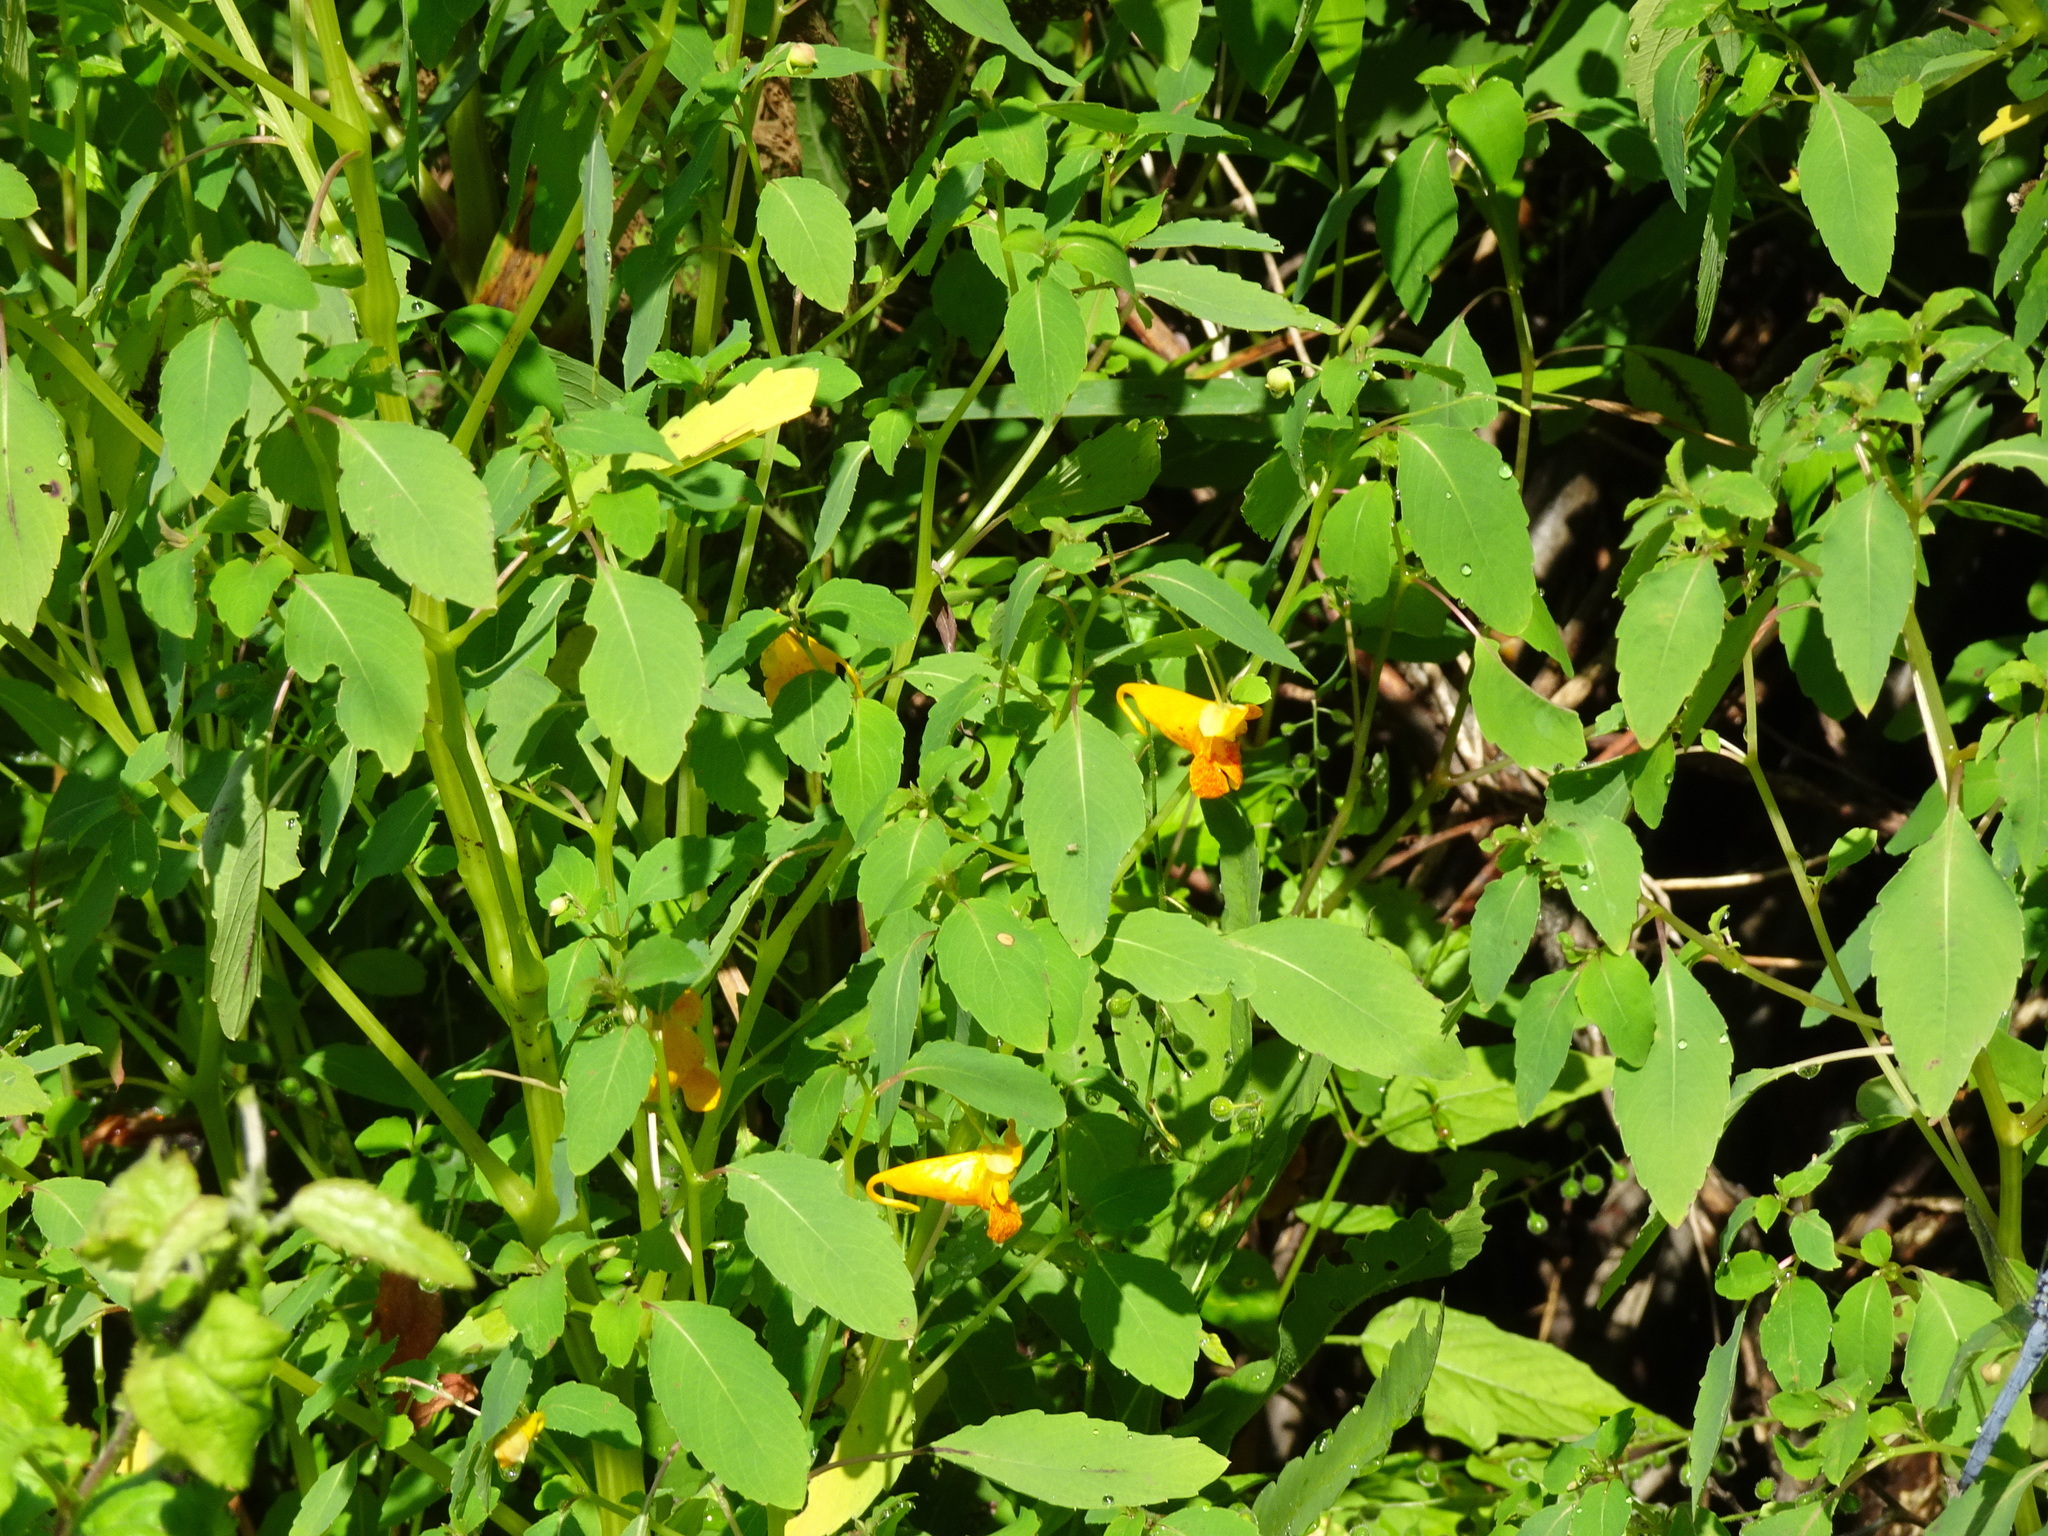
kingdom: Plantae
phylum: Tracheophyta
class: Magnoliopsida
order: Ericales
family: Balsaminaceae
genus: Impatiens
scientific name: Impatiens capensis
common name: Orange balsam
